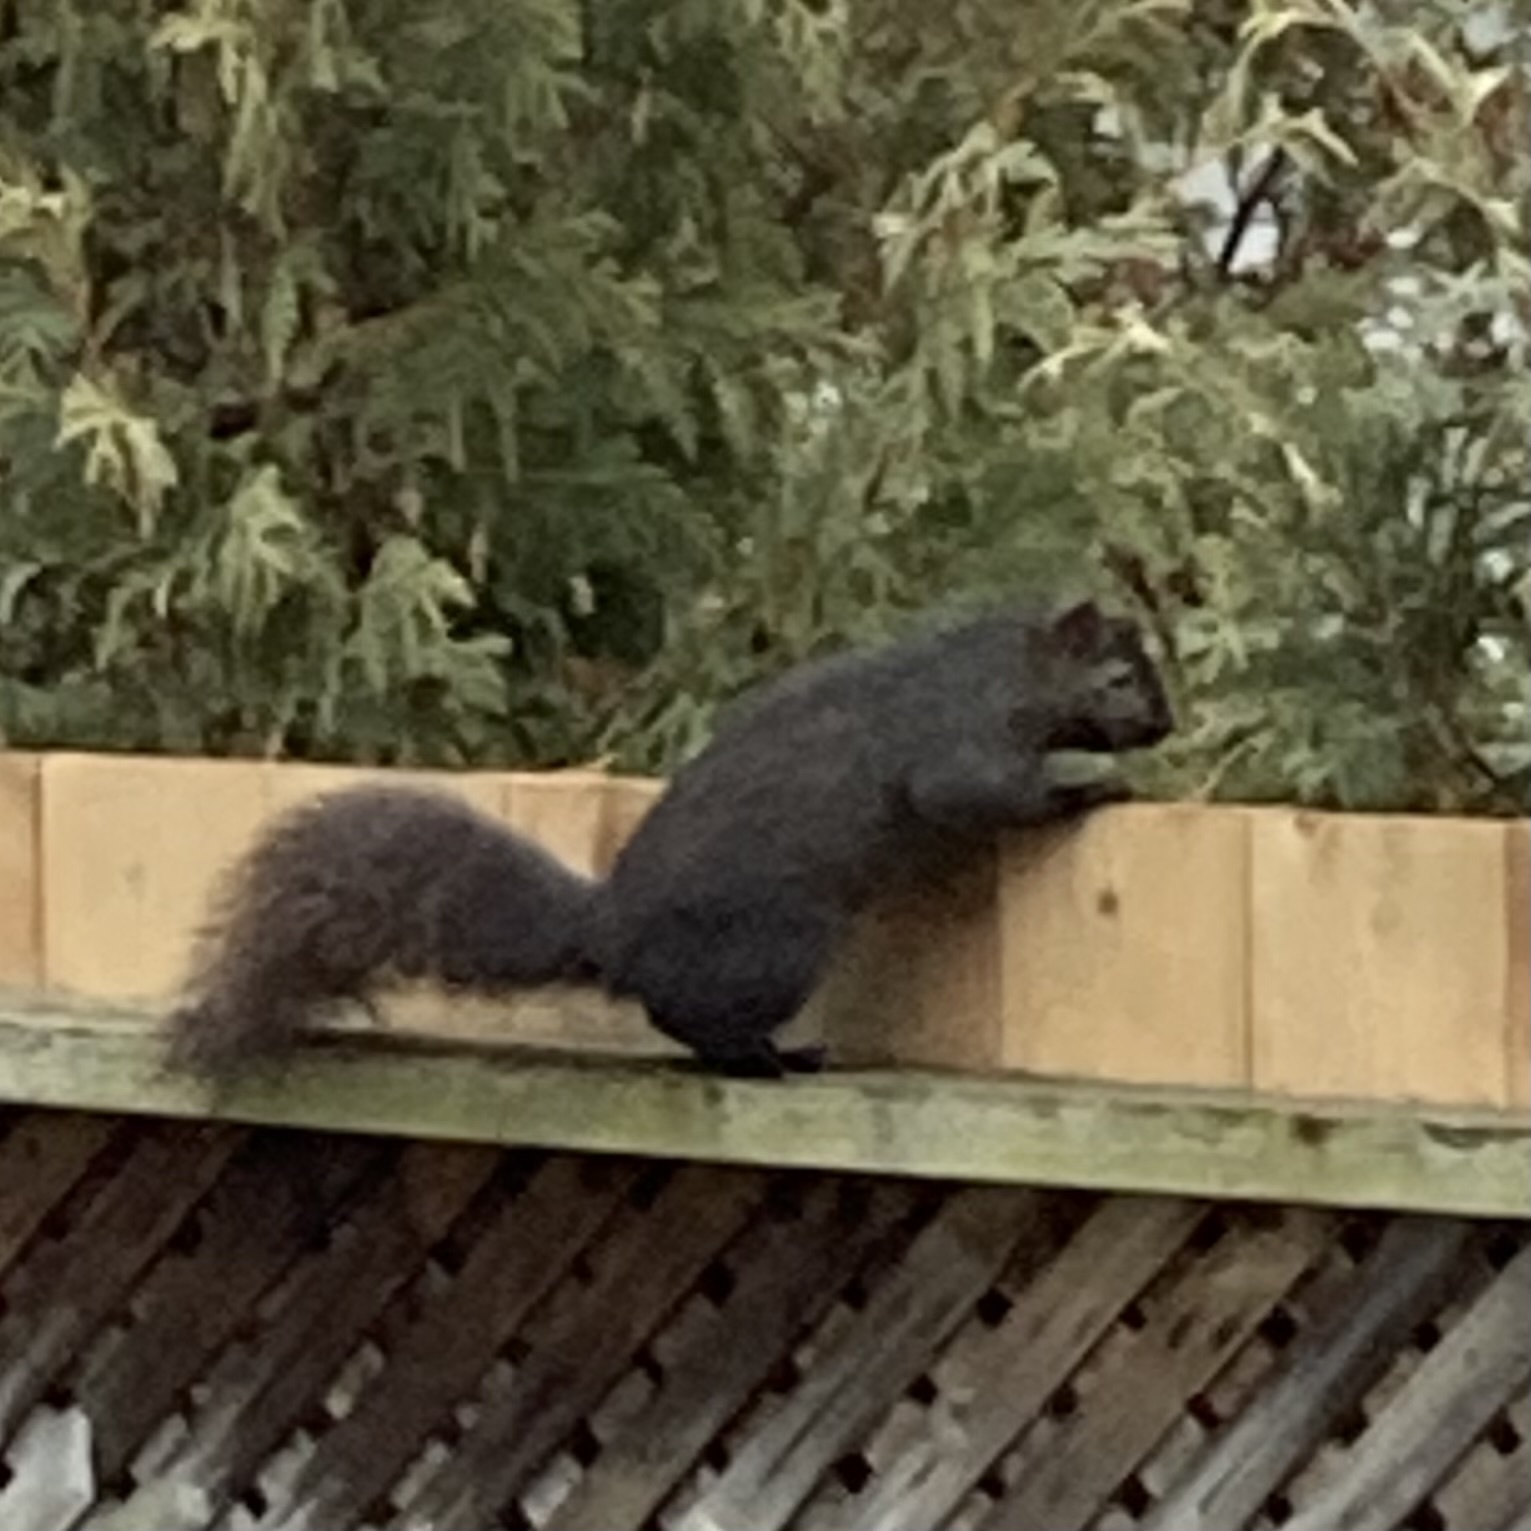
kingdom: Animalia
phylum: Chordata
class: Mammalia
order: Rodentia
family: Sciuridae
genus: Sciurus
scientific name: Sciurus carolinensis
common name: Eastern gray squirrel
